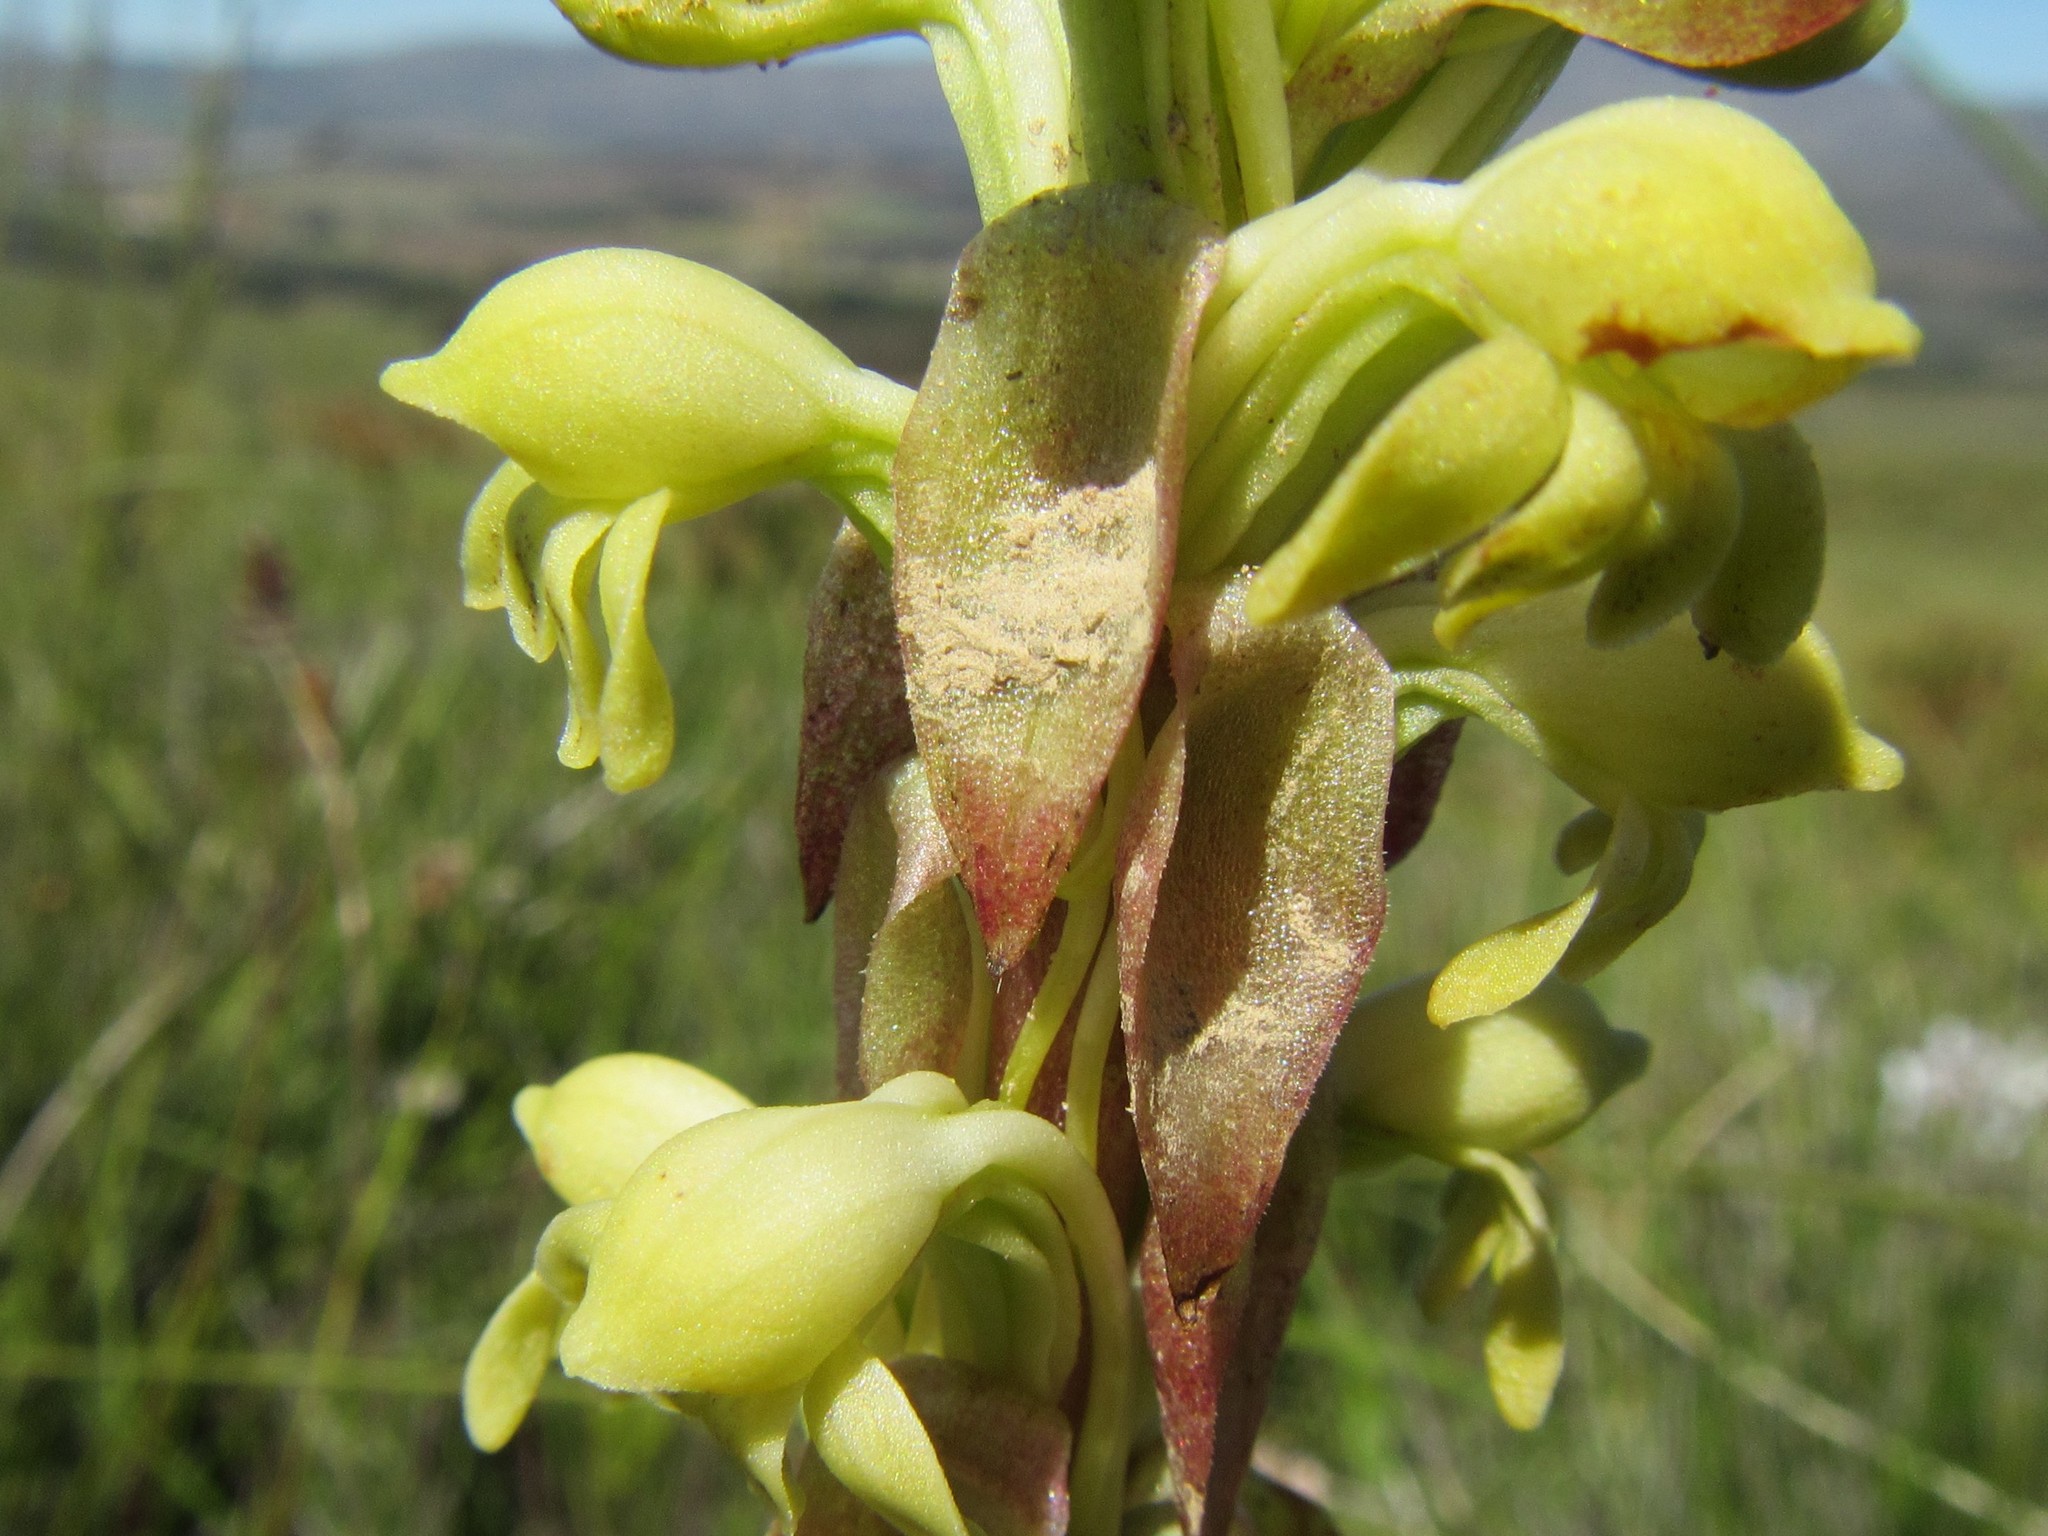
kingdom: Plantae
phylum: Tracheophyta
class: Liliopsida
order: Asparagales
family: Orchidaceae
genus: Satyrium
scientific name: Satyrium bicorne
